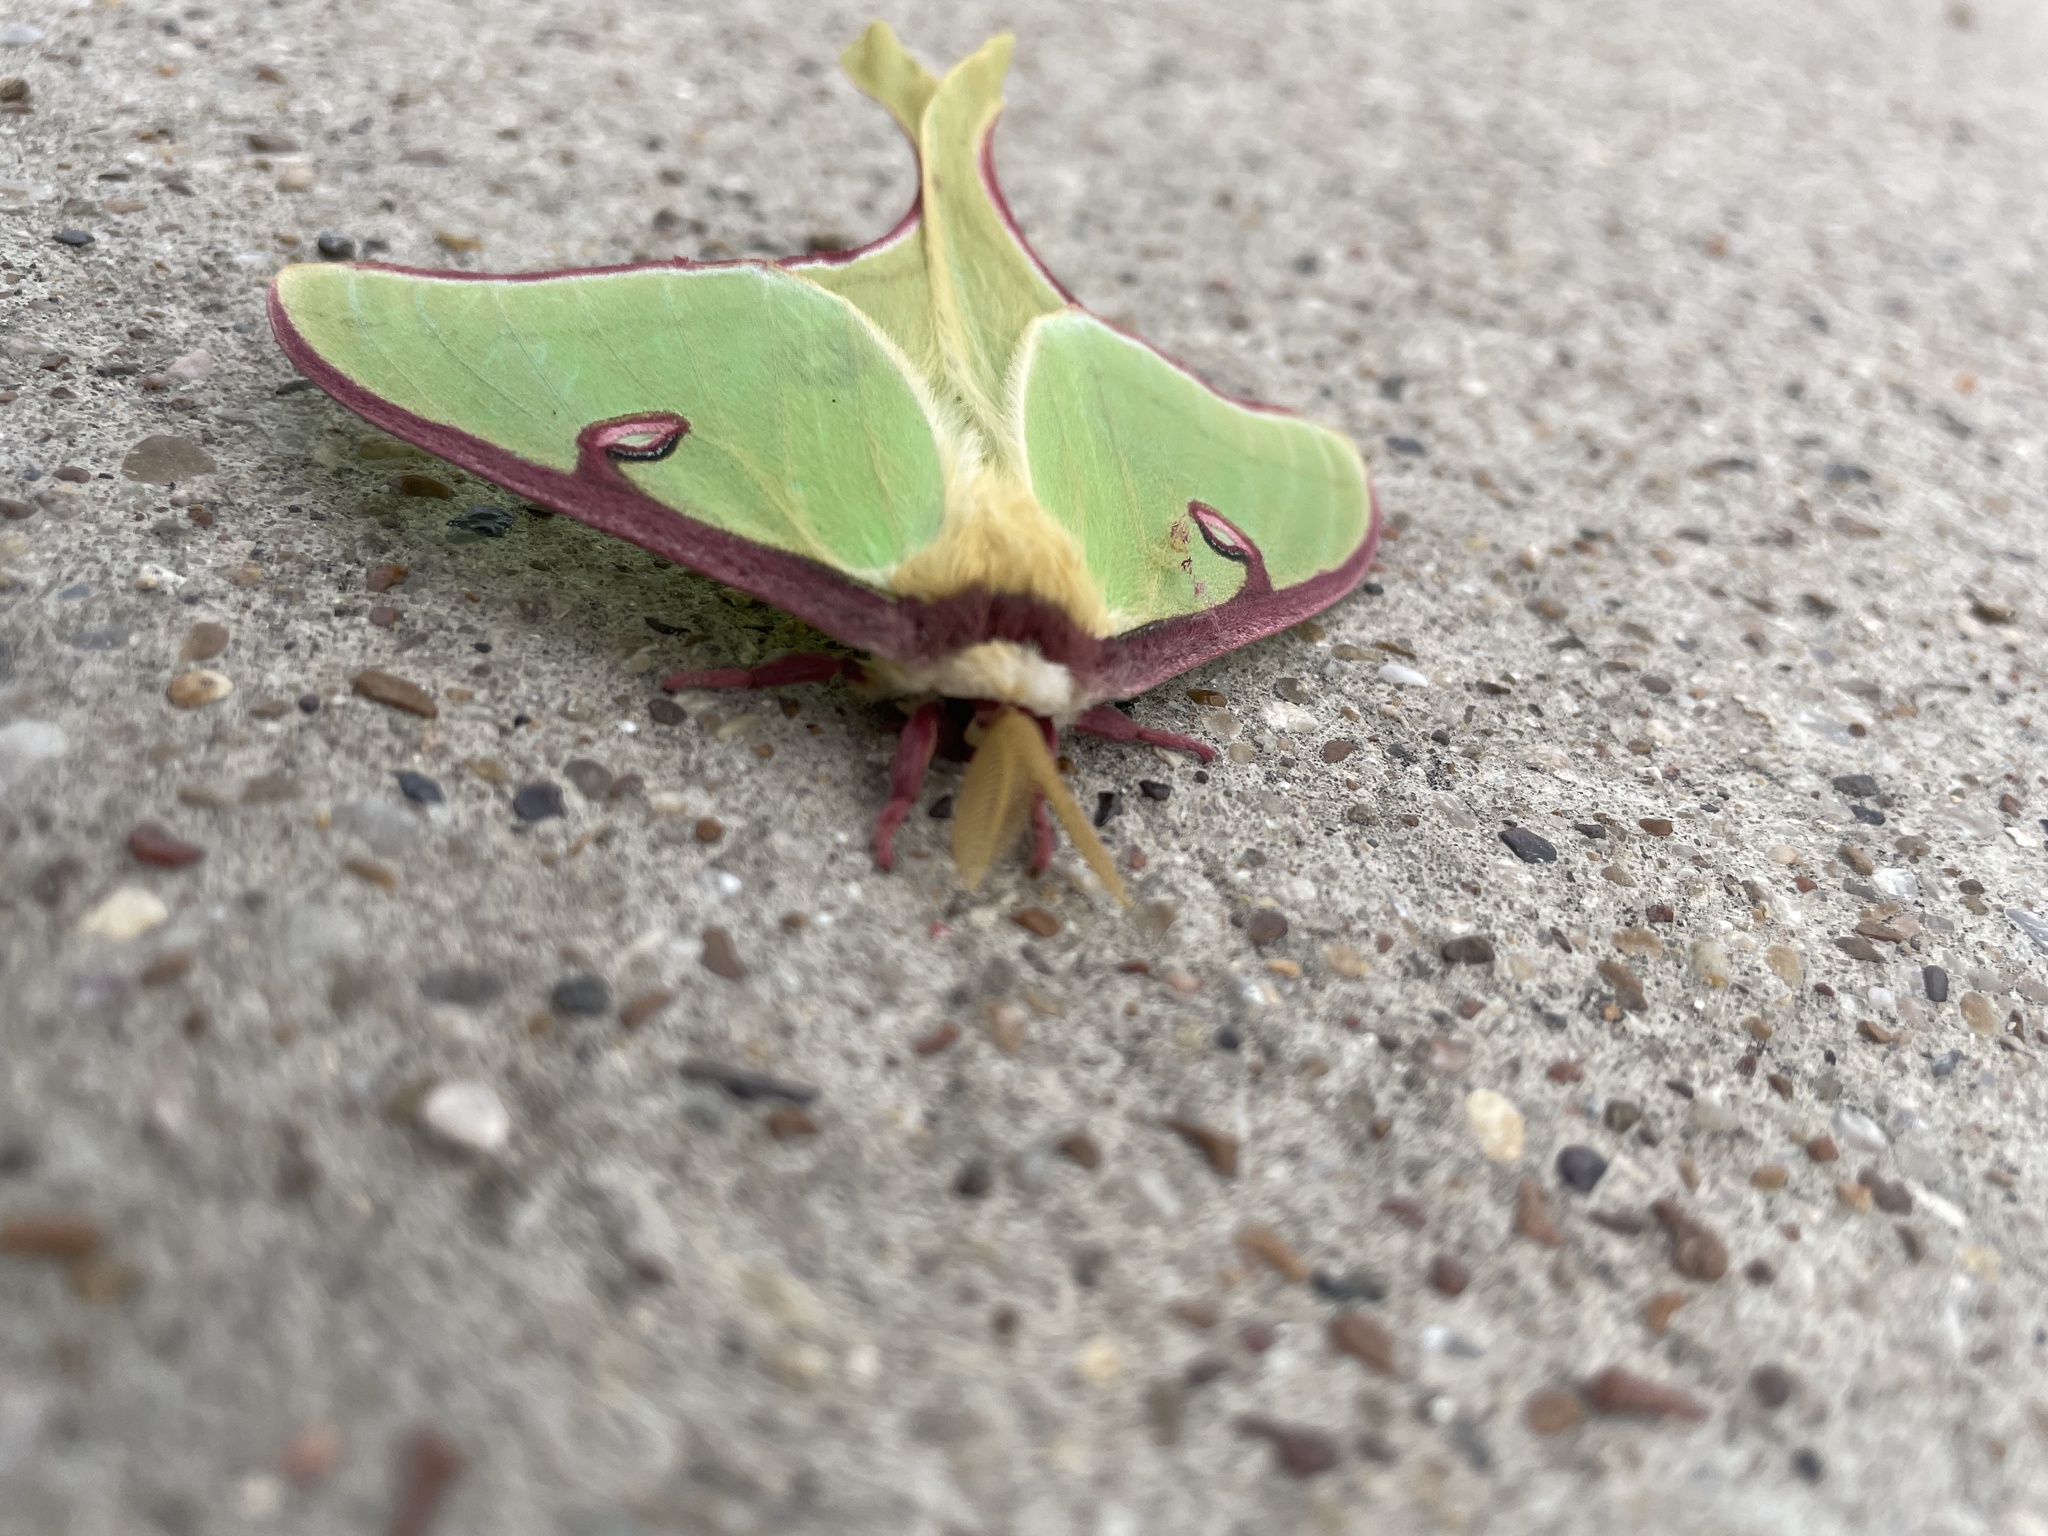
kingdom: Animalia
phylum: Arthropoda
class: Insecta
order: Lepidoptera
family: Saturniidae
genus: Actias
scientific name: Actias luna
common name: Luna moth
